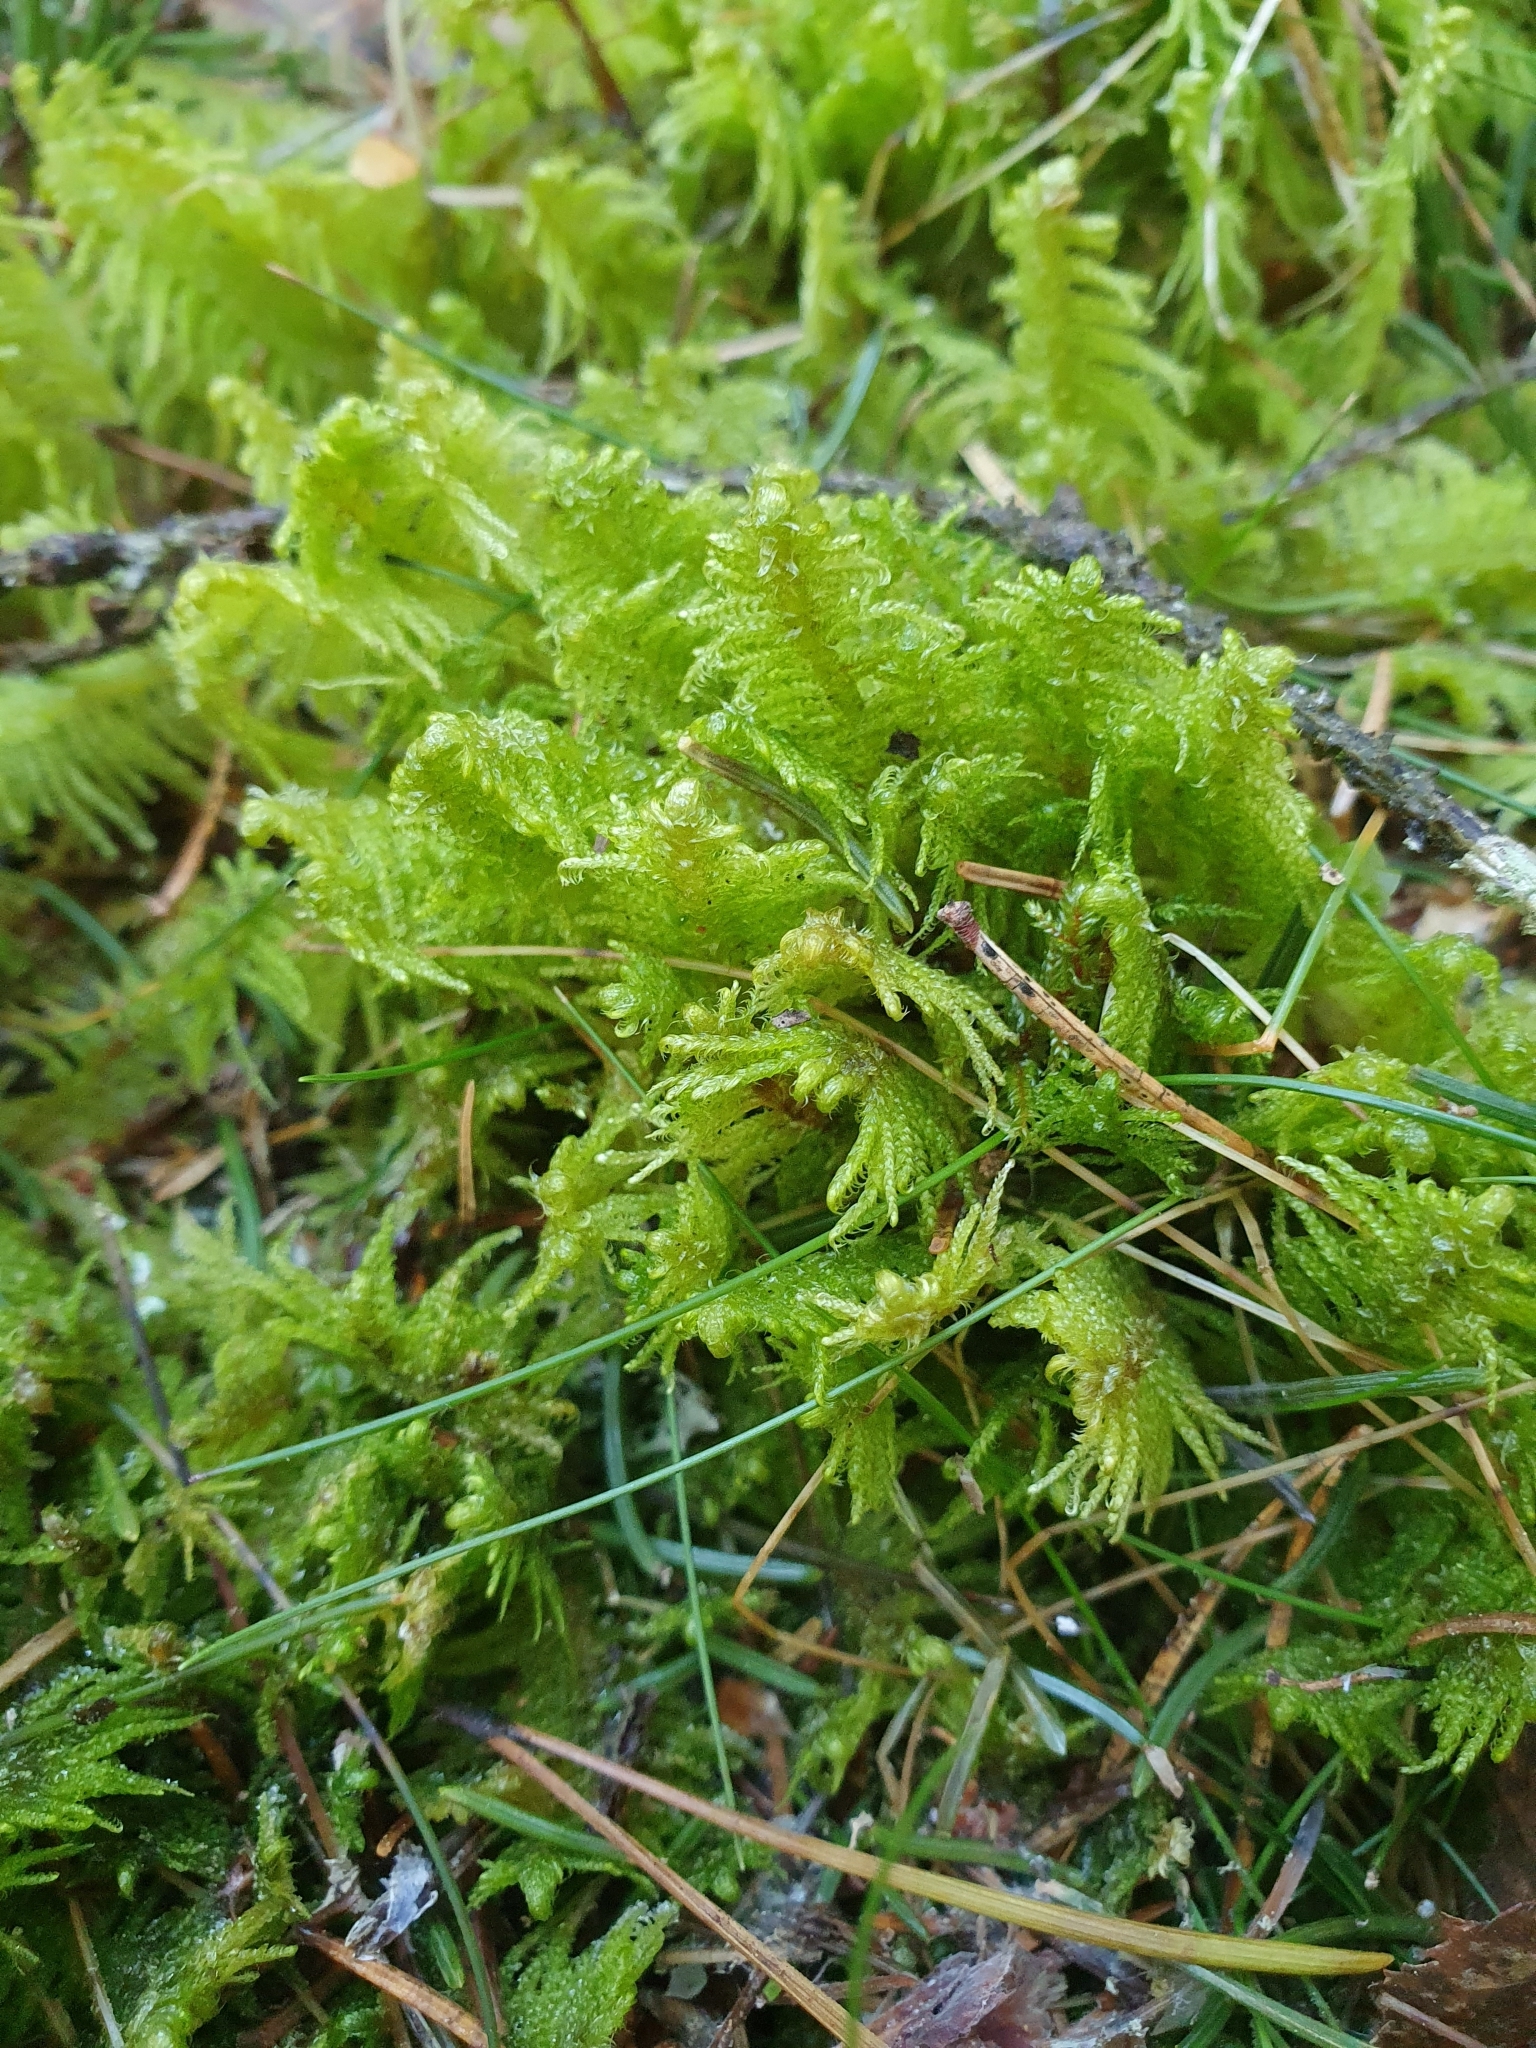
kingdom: Plantae
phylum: Bryophyta
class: Bryopsida
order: Hypnales
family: Pylaisiaceae
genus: Ptilium
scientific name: Ptilium crista-castrensis
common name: Knight's plume moss
